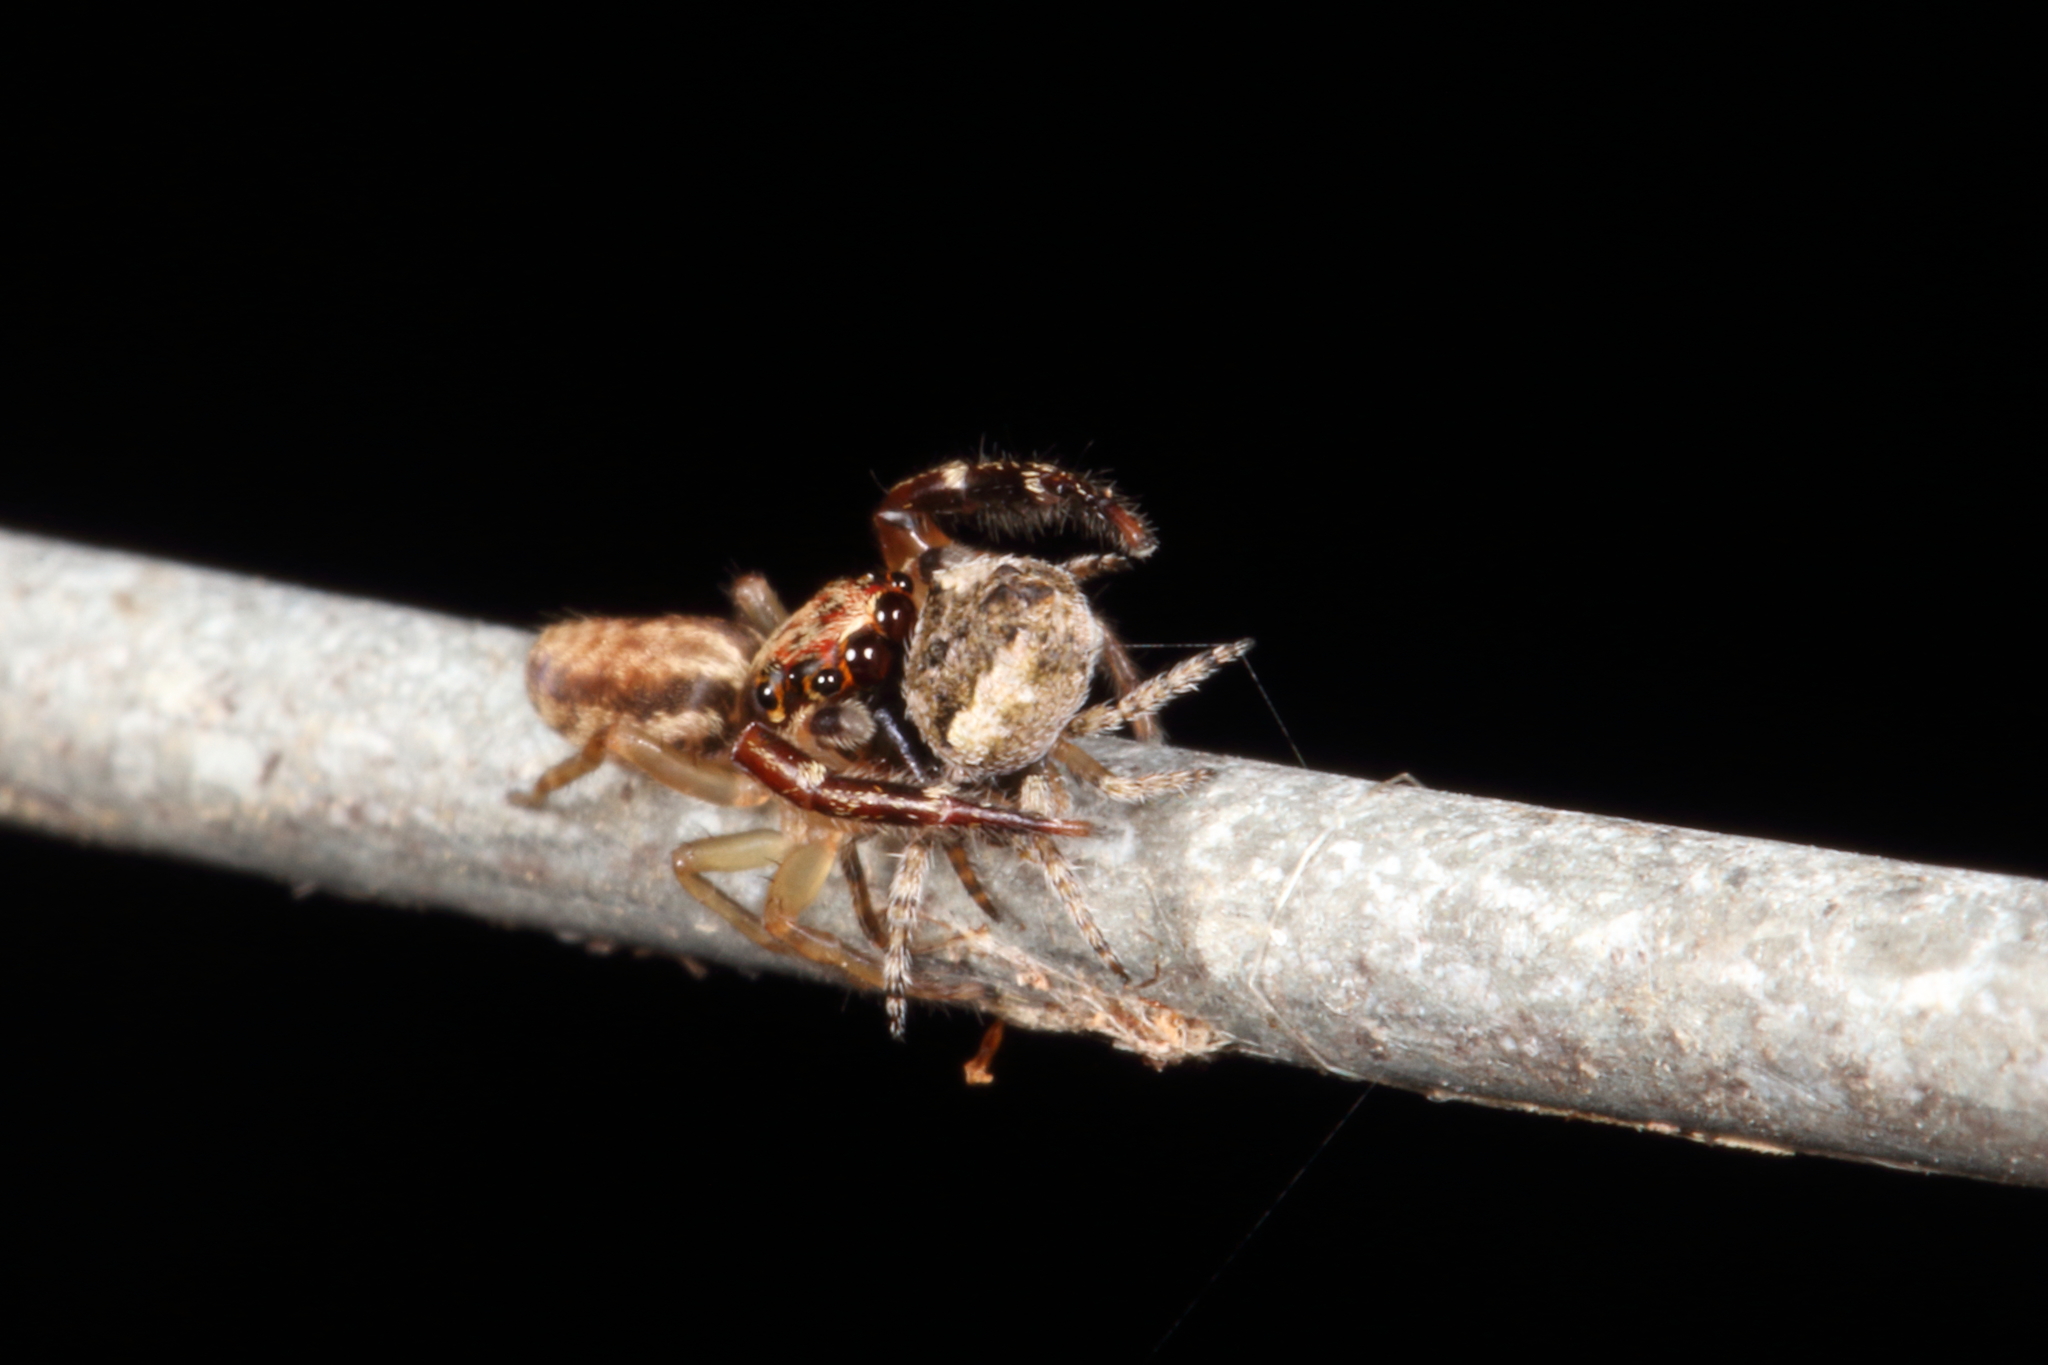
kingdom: Animalia
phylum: Arthropoda
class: Arachnida
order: Araneae
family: Salticidae
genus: Trite
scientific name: Trite mustilina
